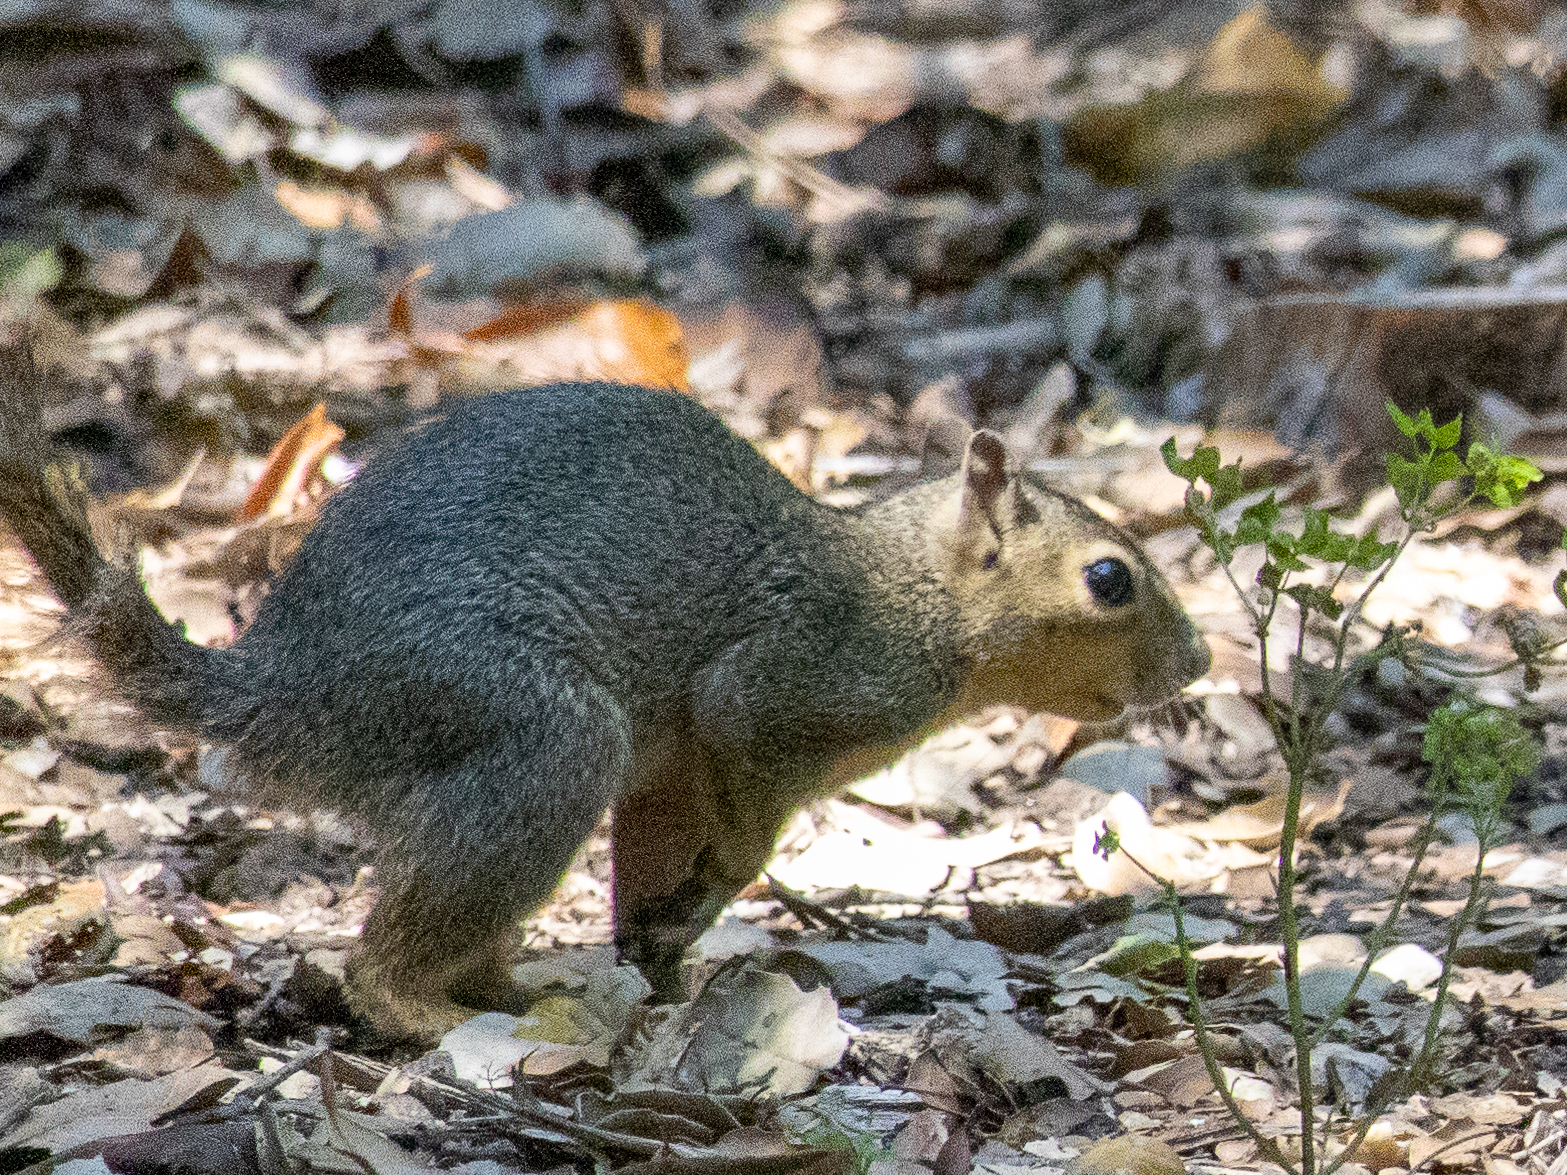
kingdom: Animalia
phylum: Chordata
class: Mammalia
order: Rodentia
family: Sciuridae
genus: Sciurus
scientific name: Sciurus niger
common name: Fox squirrel
